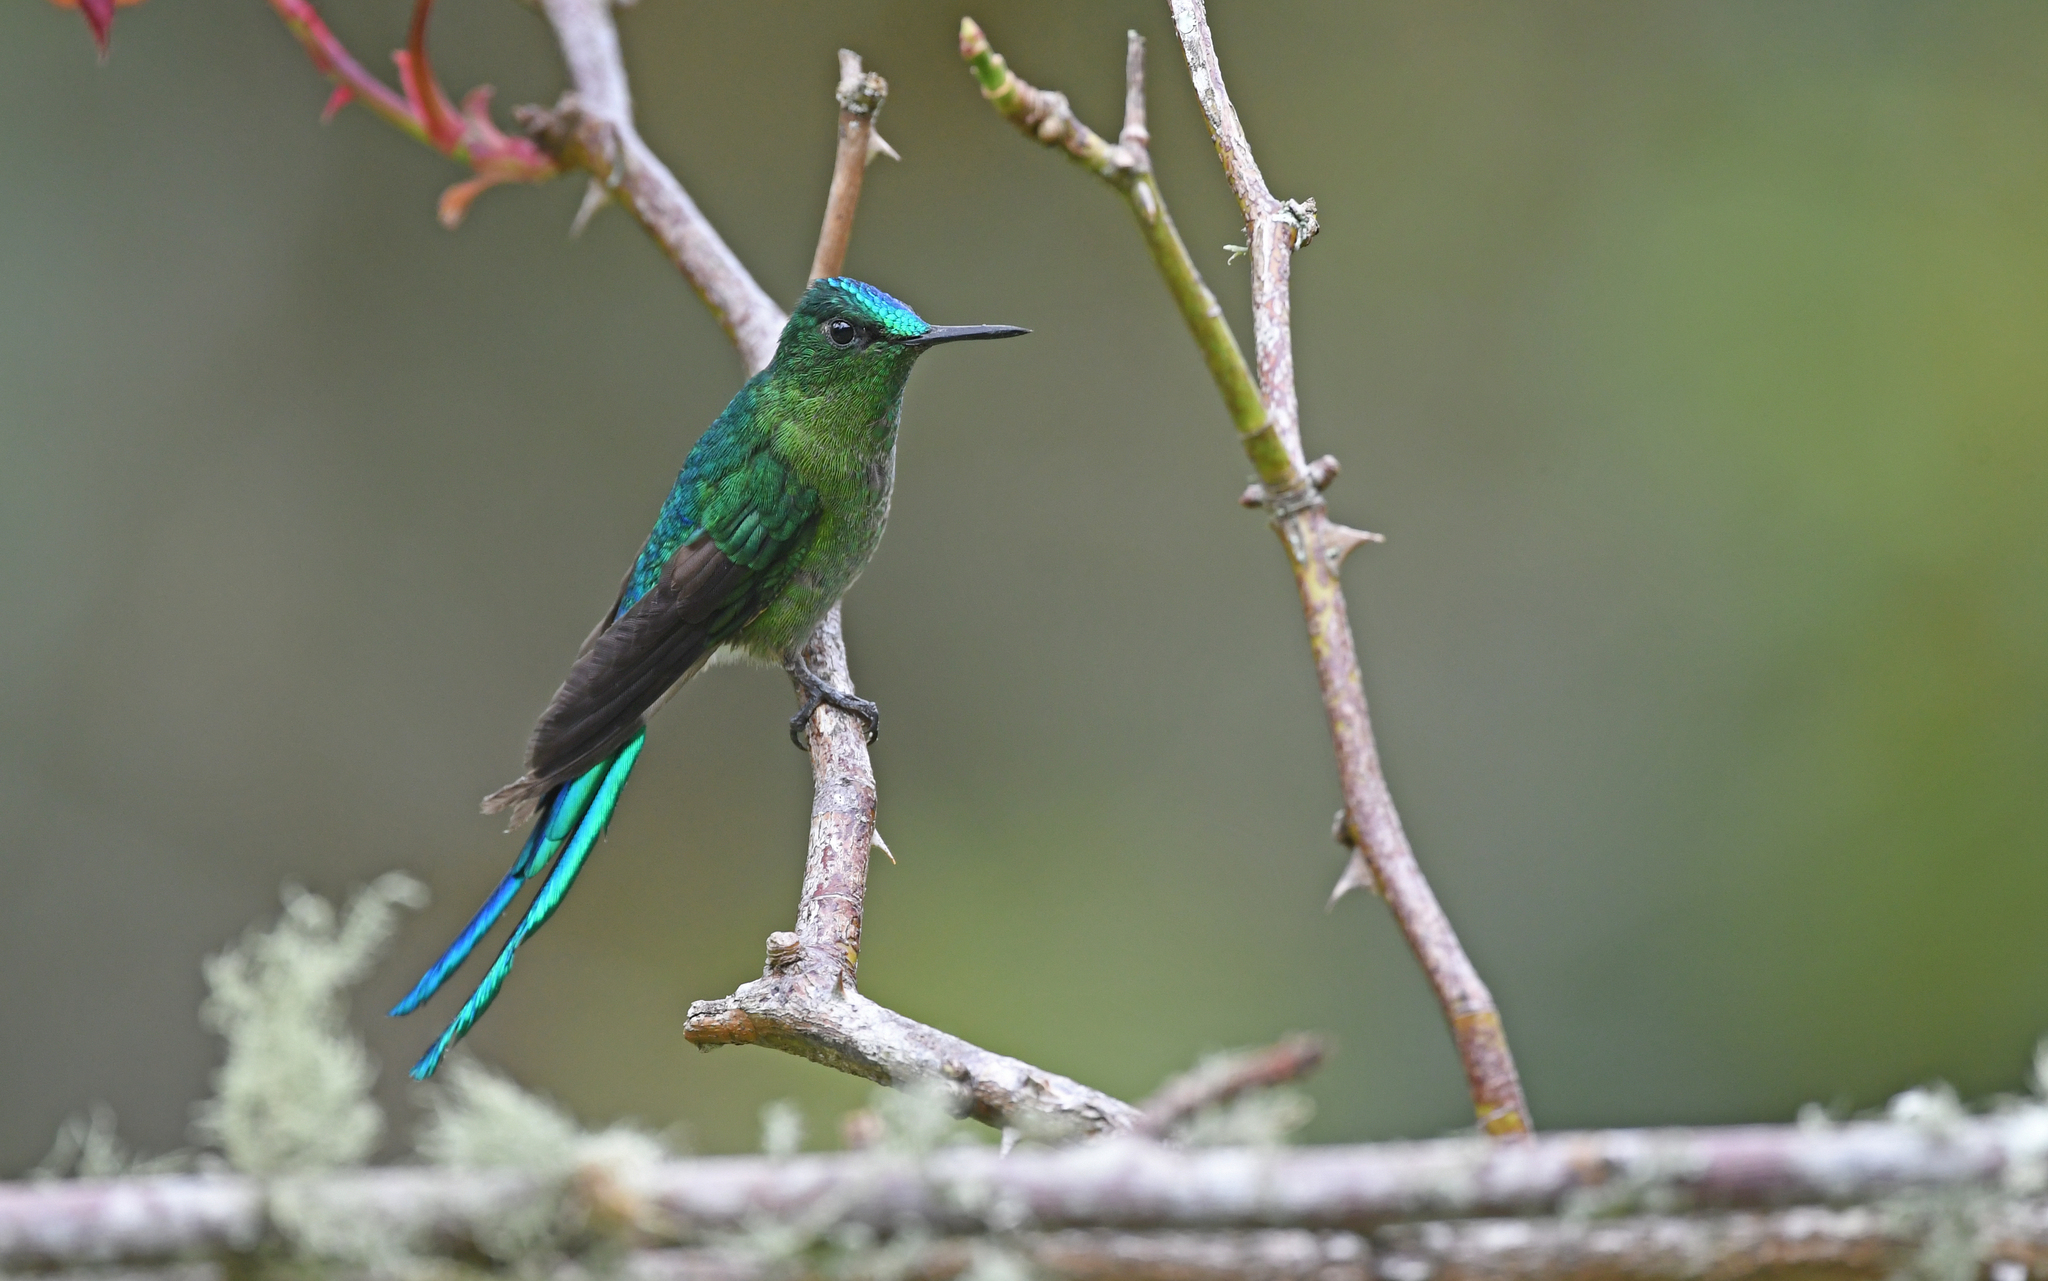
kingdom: Animalia
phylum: Chordata
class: Aves
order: Apodiformes
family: Trochilidae
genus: Aglaiocercus
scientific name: Aglaiocercus kingii
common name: Long-tailed sylph
